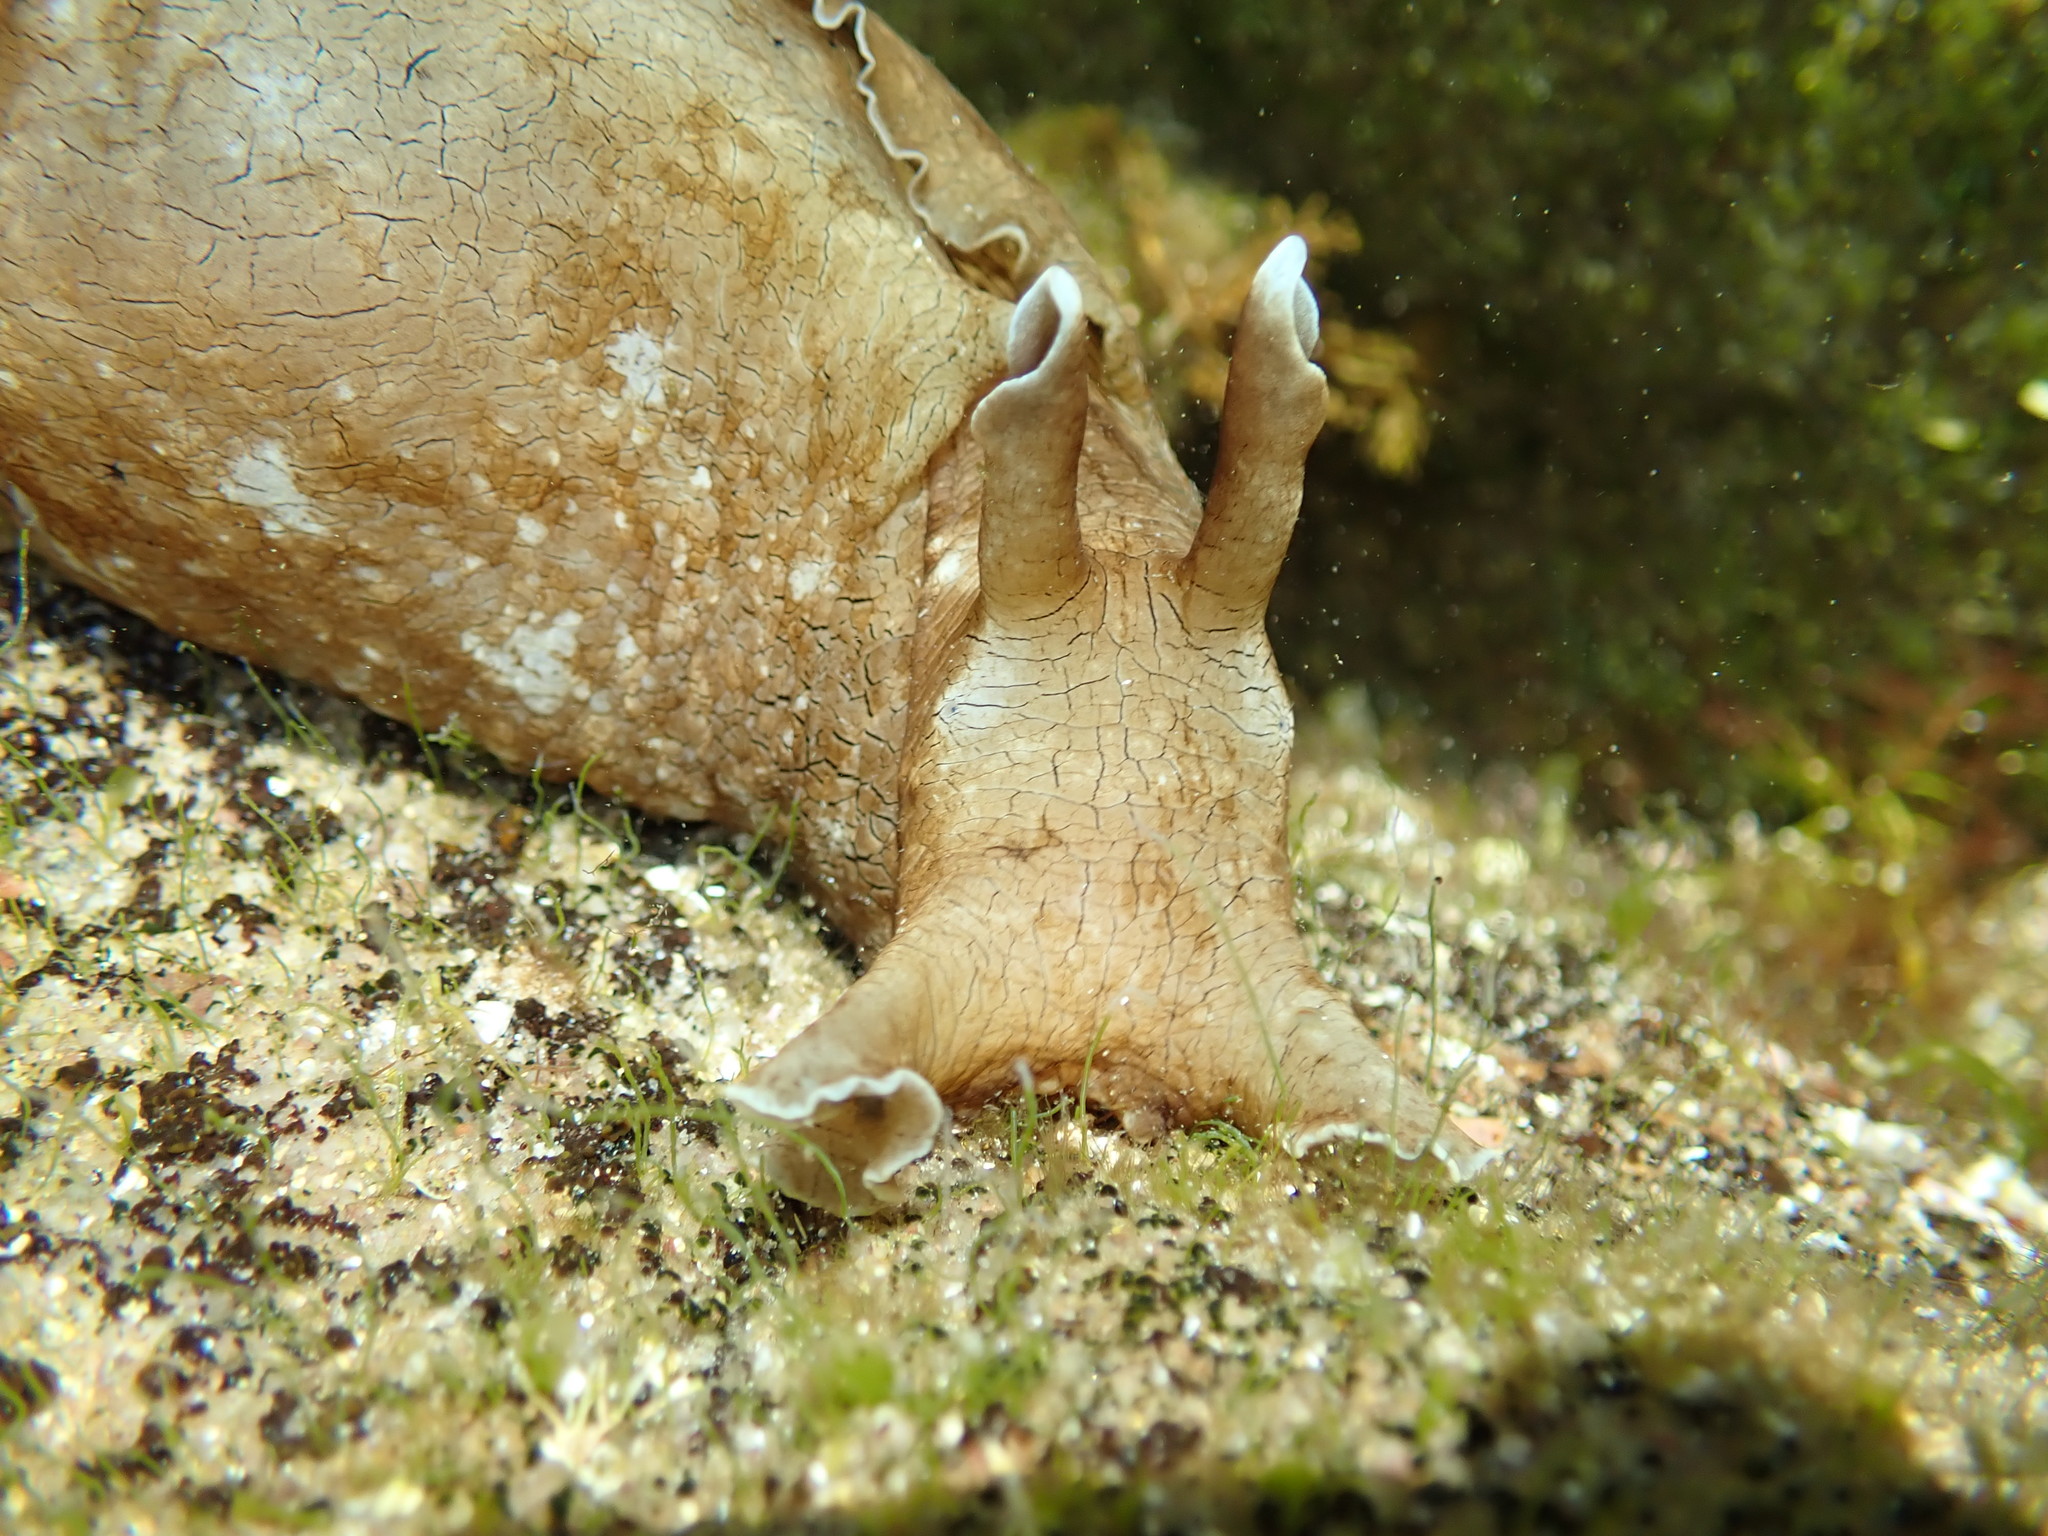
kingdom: Animalia
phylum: Mollusca
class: Gastropoda
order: Aplysiida
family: Aplysiidae
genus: Aplysia
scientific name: Aplysia sydneyensis
